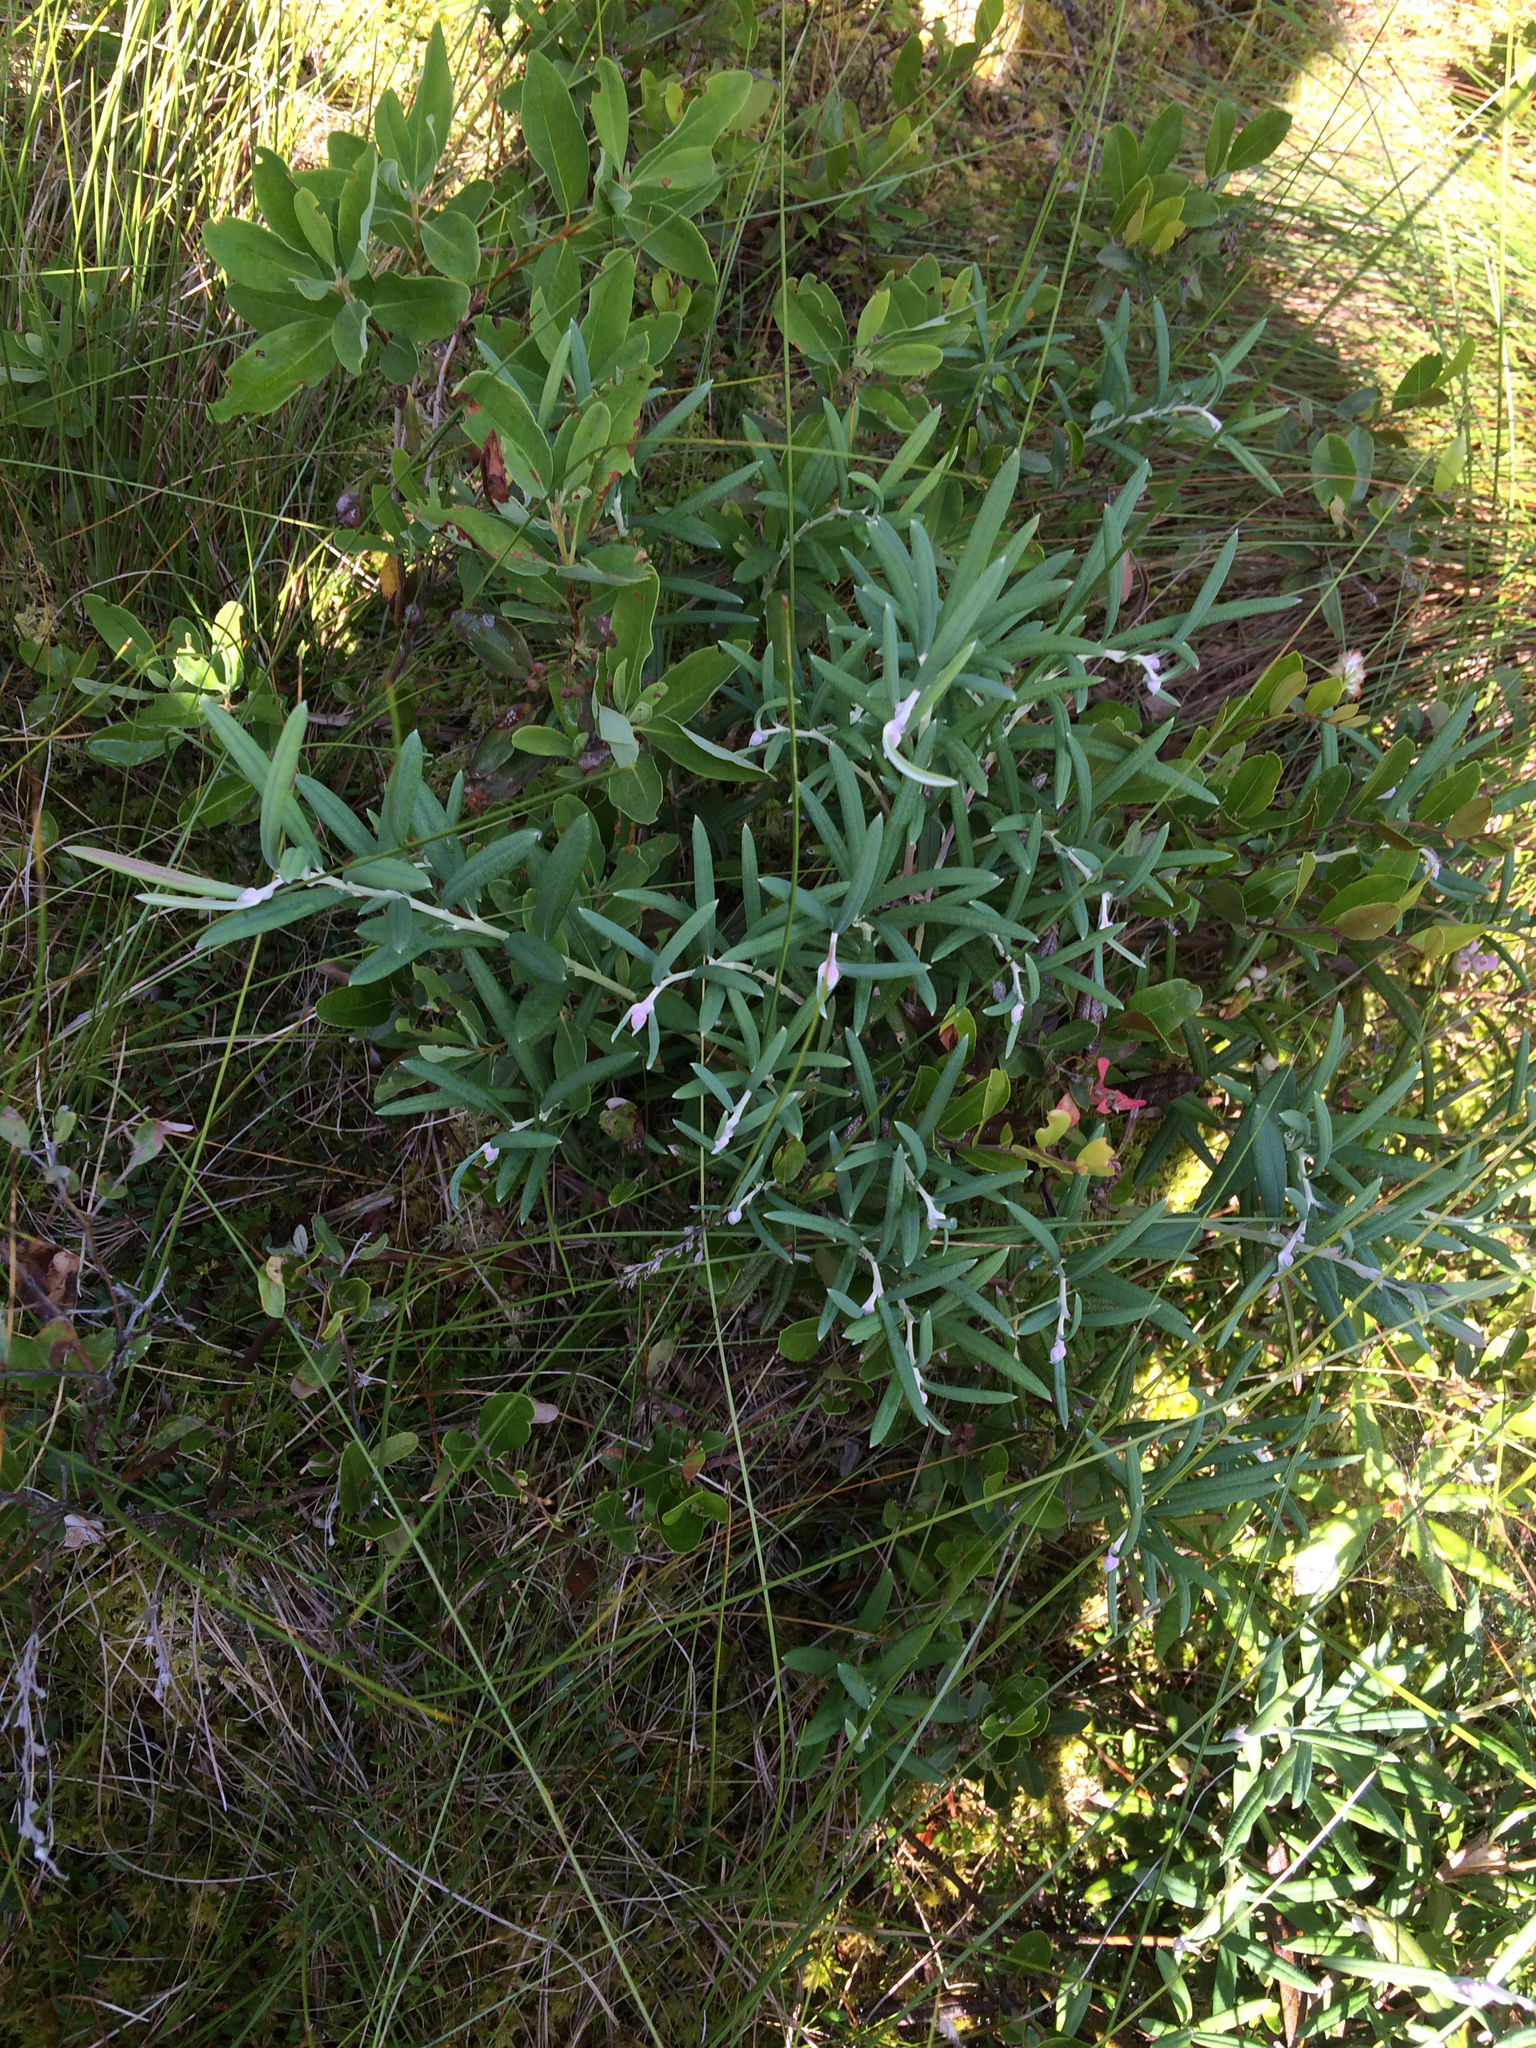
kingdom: Plantae
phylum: Tracheophyta
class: Magnoliopsida
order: Ericales
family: Ericaceae
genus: Andromeda
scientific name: Andromeda polifolia
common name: Bog-rosemary
